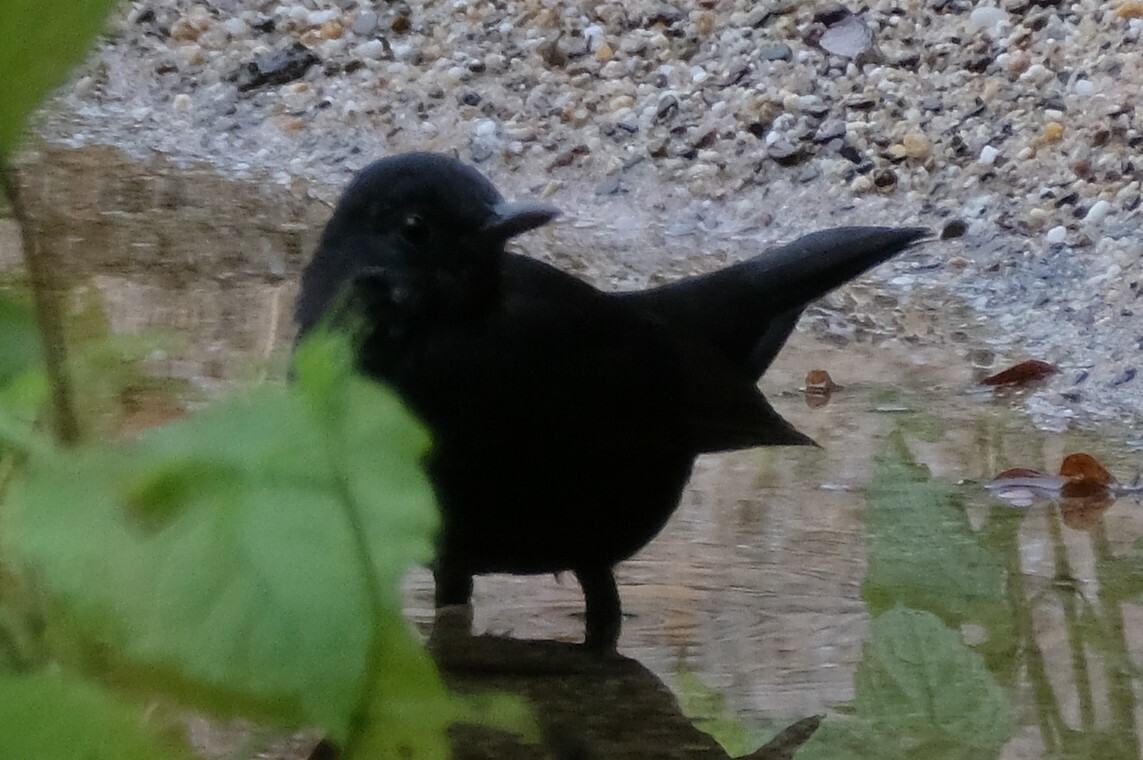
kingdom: Animalia
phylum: Chordata
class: Aves
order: Passeriformes
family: Turdidae
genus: Turdus
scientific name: Turdus merula
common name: Common blackbird
